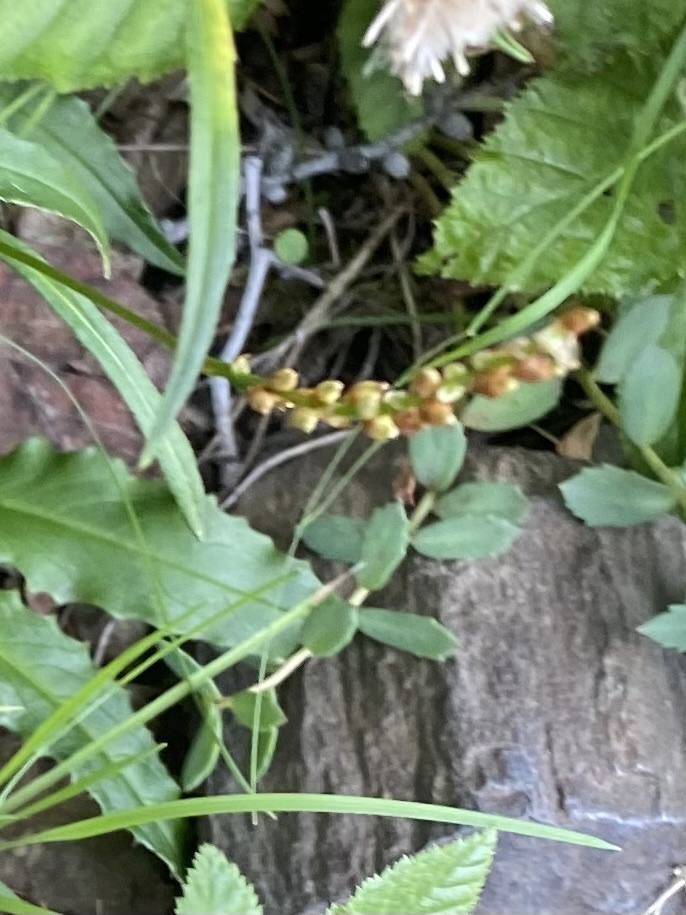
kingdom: Plantae
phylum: Tracheophyta
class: Magnoliopsida
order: Caryophyllales
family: Polygonaceae
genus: Bistorta
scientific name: Bistorta vivipara
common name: Alpine bistort
